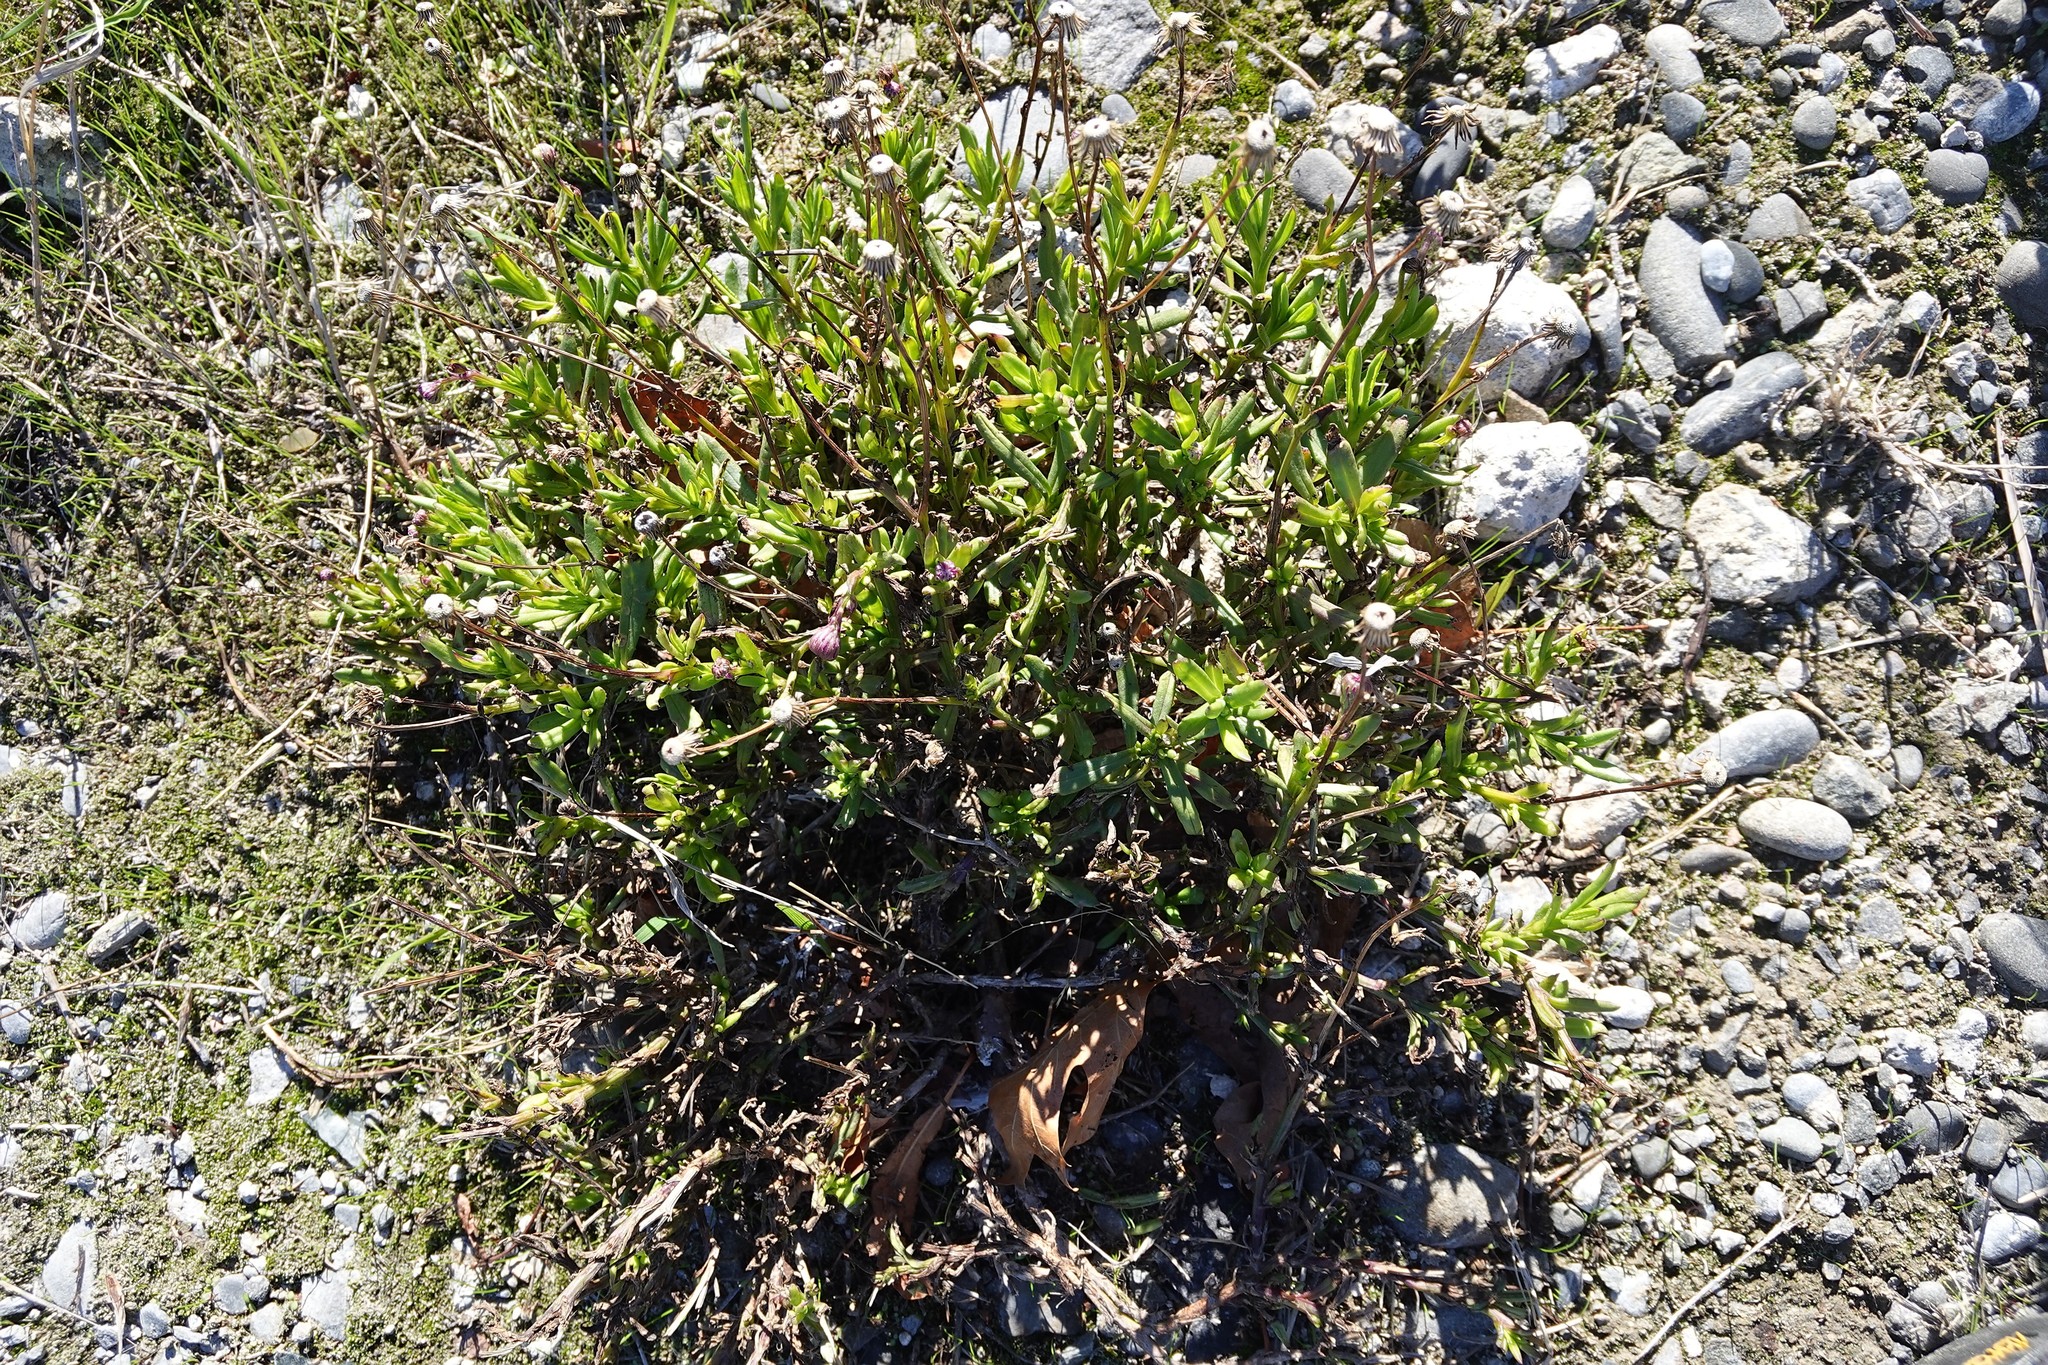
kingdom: Plantae
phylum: Tracheophyta
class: Magnoliopsida
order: Asterales
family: Asteraceae
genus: Senecio
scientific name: Senecio skirrhodon
